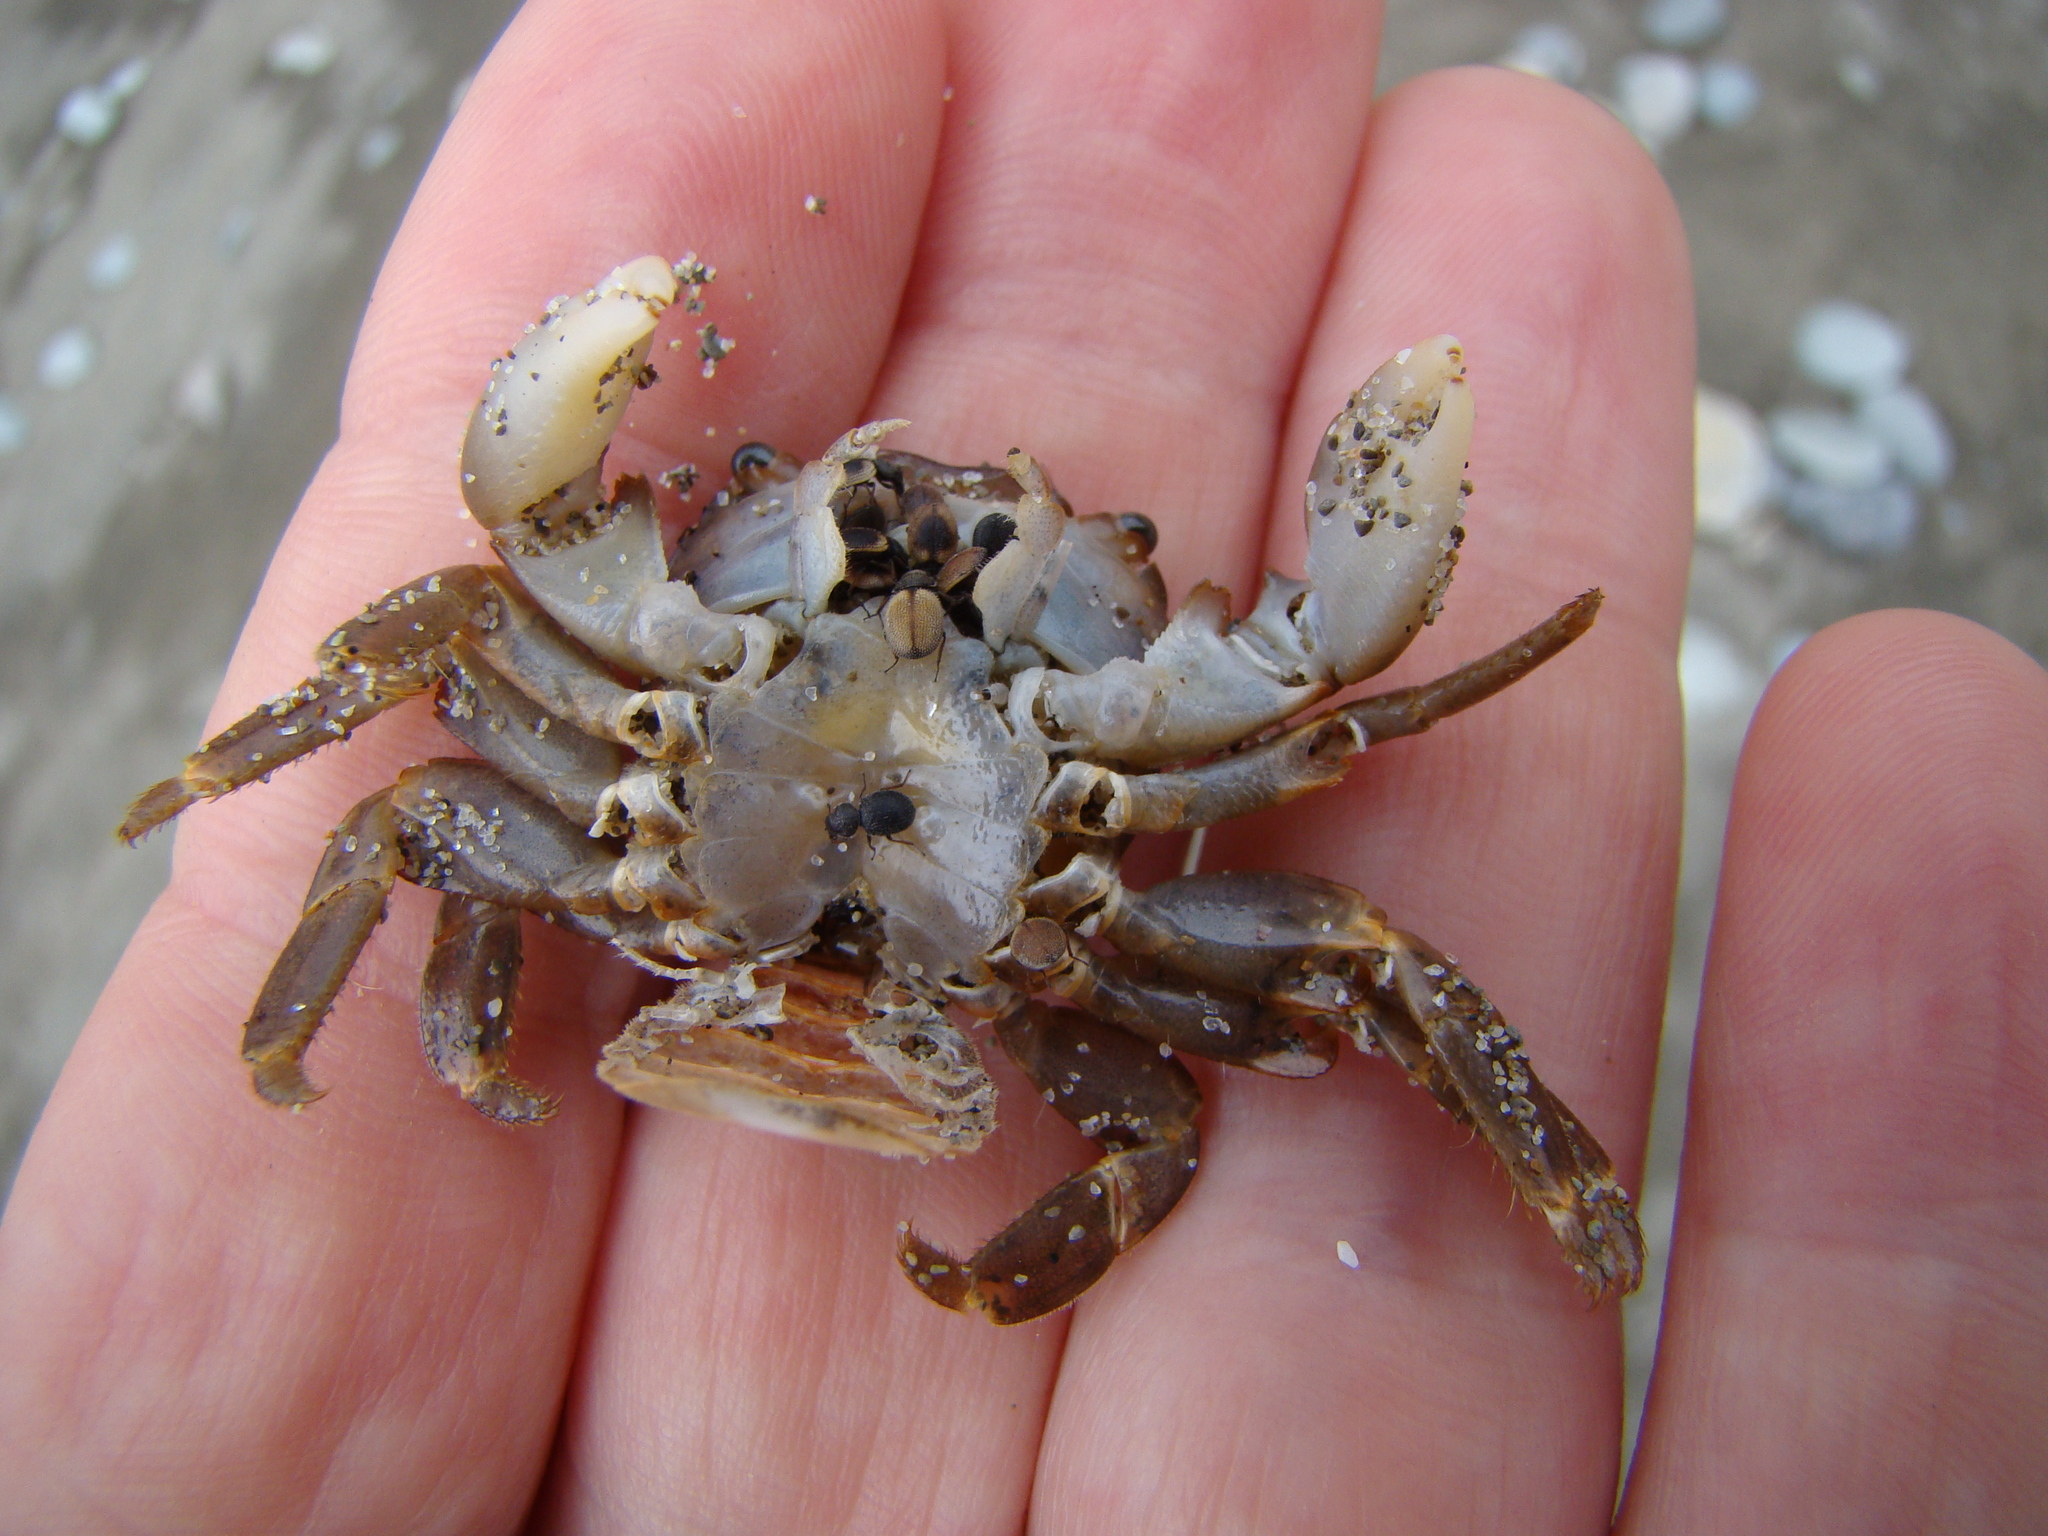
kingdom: Animalia
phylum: Arthropoda
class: Insecta
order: Coleoptera
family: Phycosecidae
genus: Phycosecis
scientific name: Phycosecis
